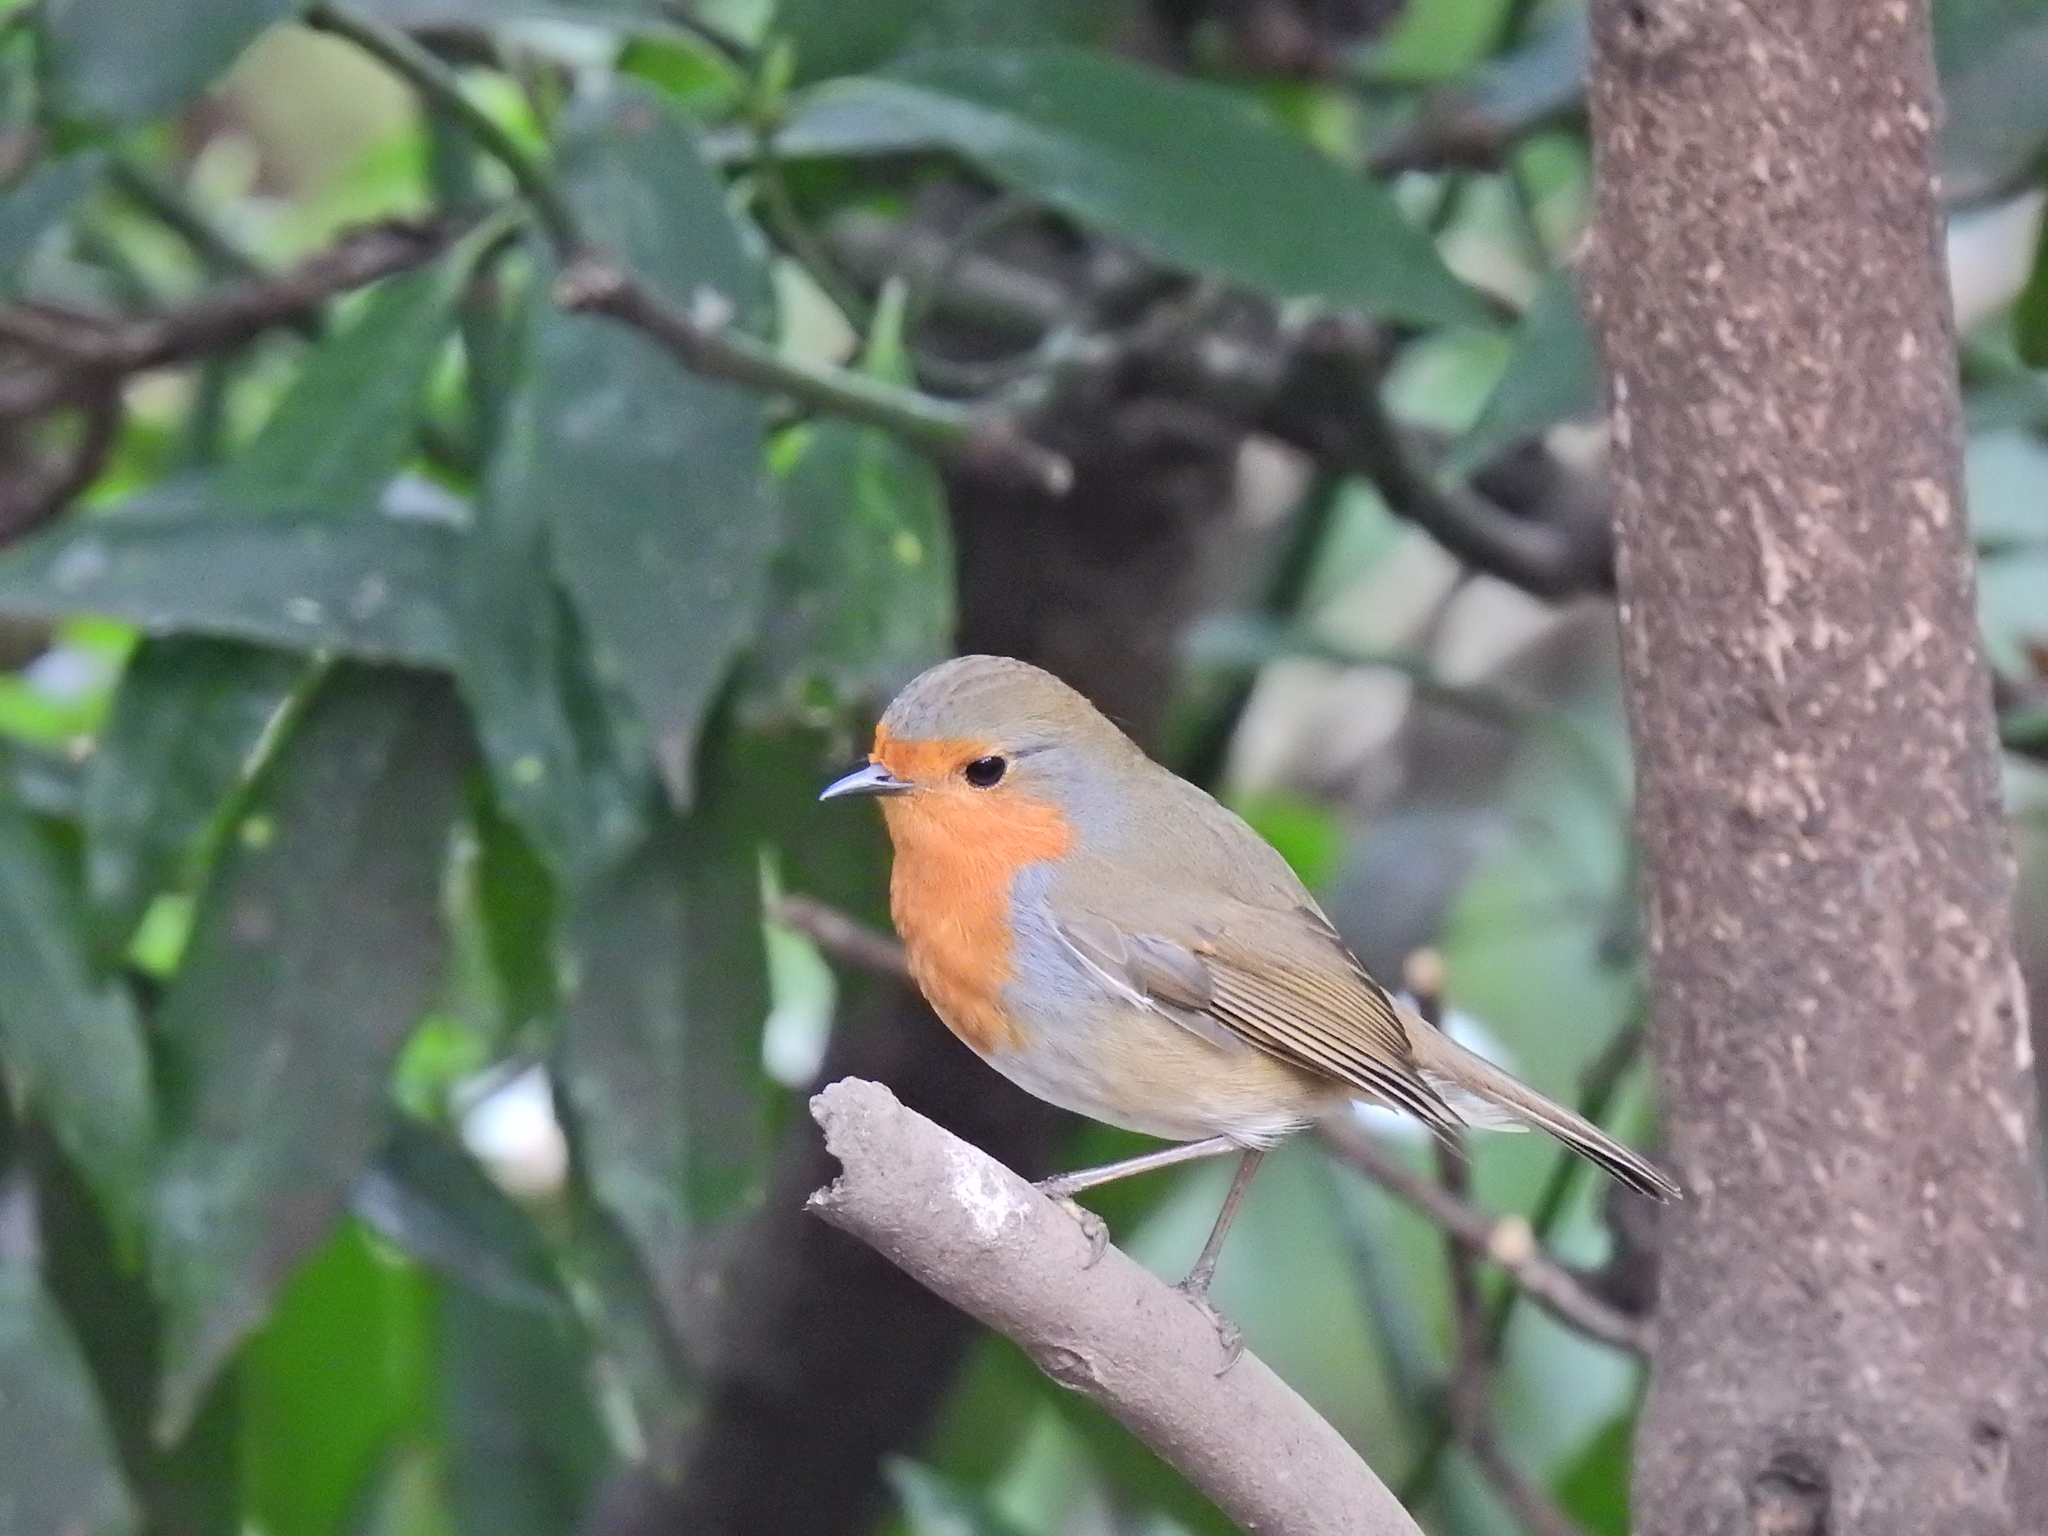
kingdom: Animalia
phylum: Chordata
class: Aves
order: Passeriformes
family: Muscicapidae
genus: Erithacus
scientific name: Erithacus rubecula
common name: European robin
